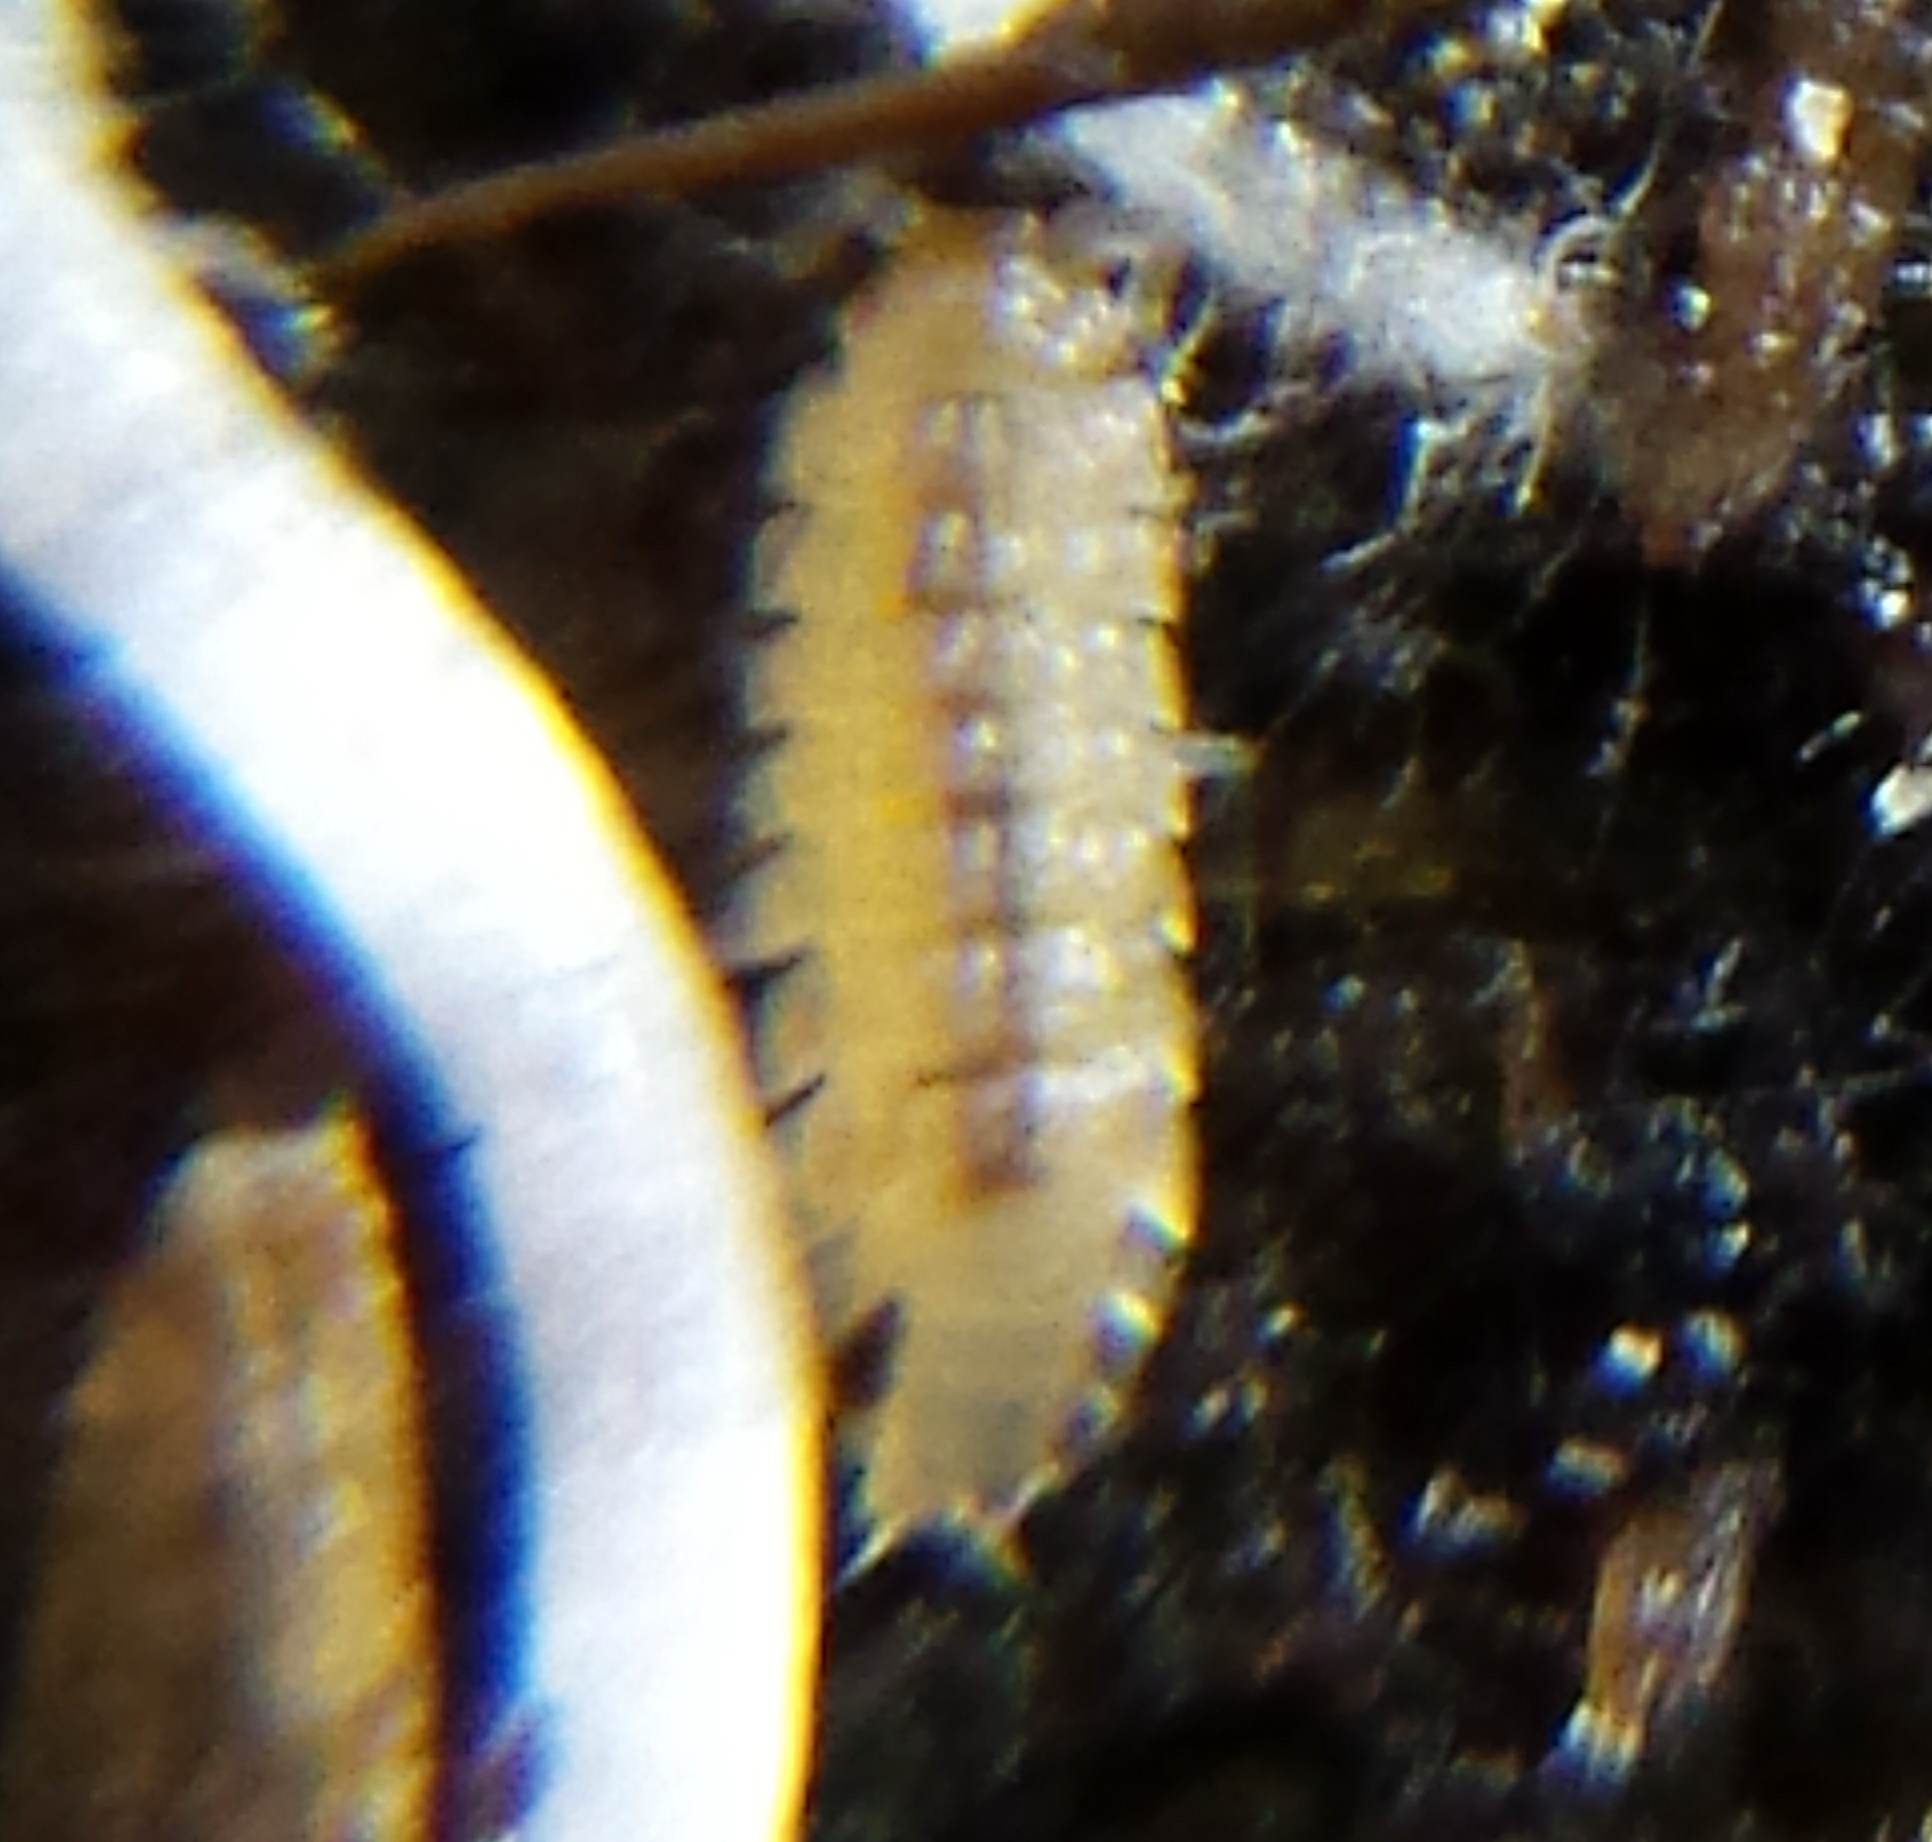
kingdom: Animalia
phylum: Arthropoda
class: Malacostraca
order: Isopoda
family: Trichoniscidae
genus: Haplophthalmus
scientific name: Haplophthalmus danicus
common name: Pillbug
